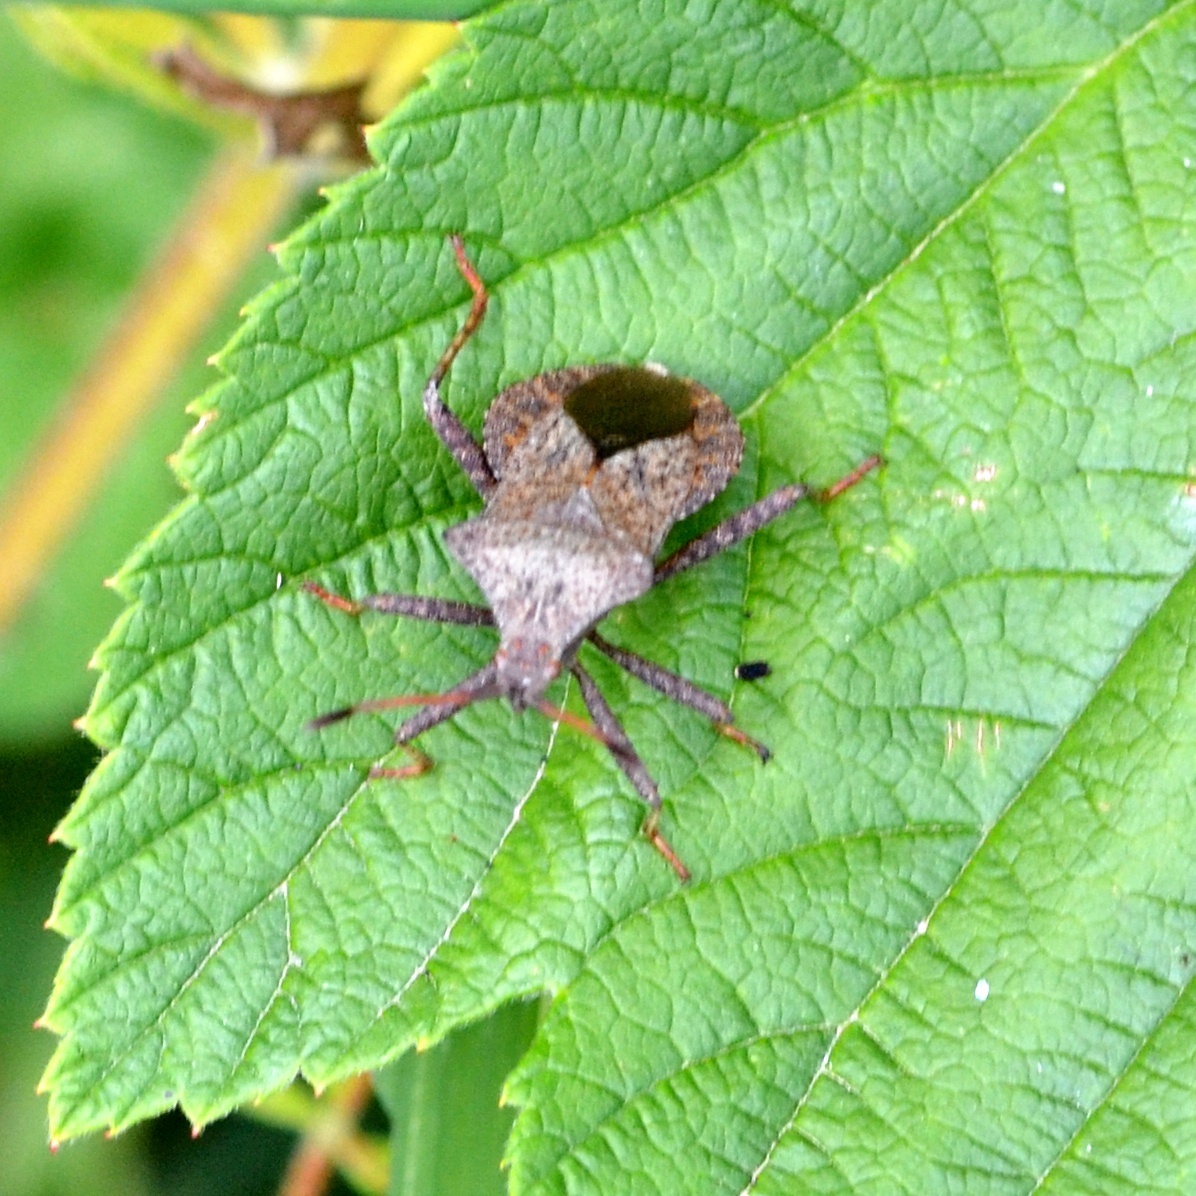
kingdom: Animalia
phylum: Arthropoda
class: Insecta
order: Hemiptera
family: Coreidae
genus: Coreus
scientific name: Coreus marginatus
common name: Dock bug
